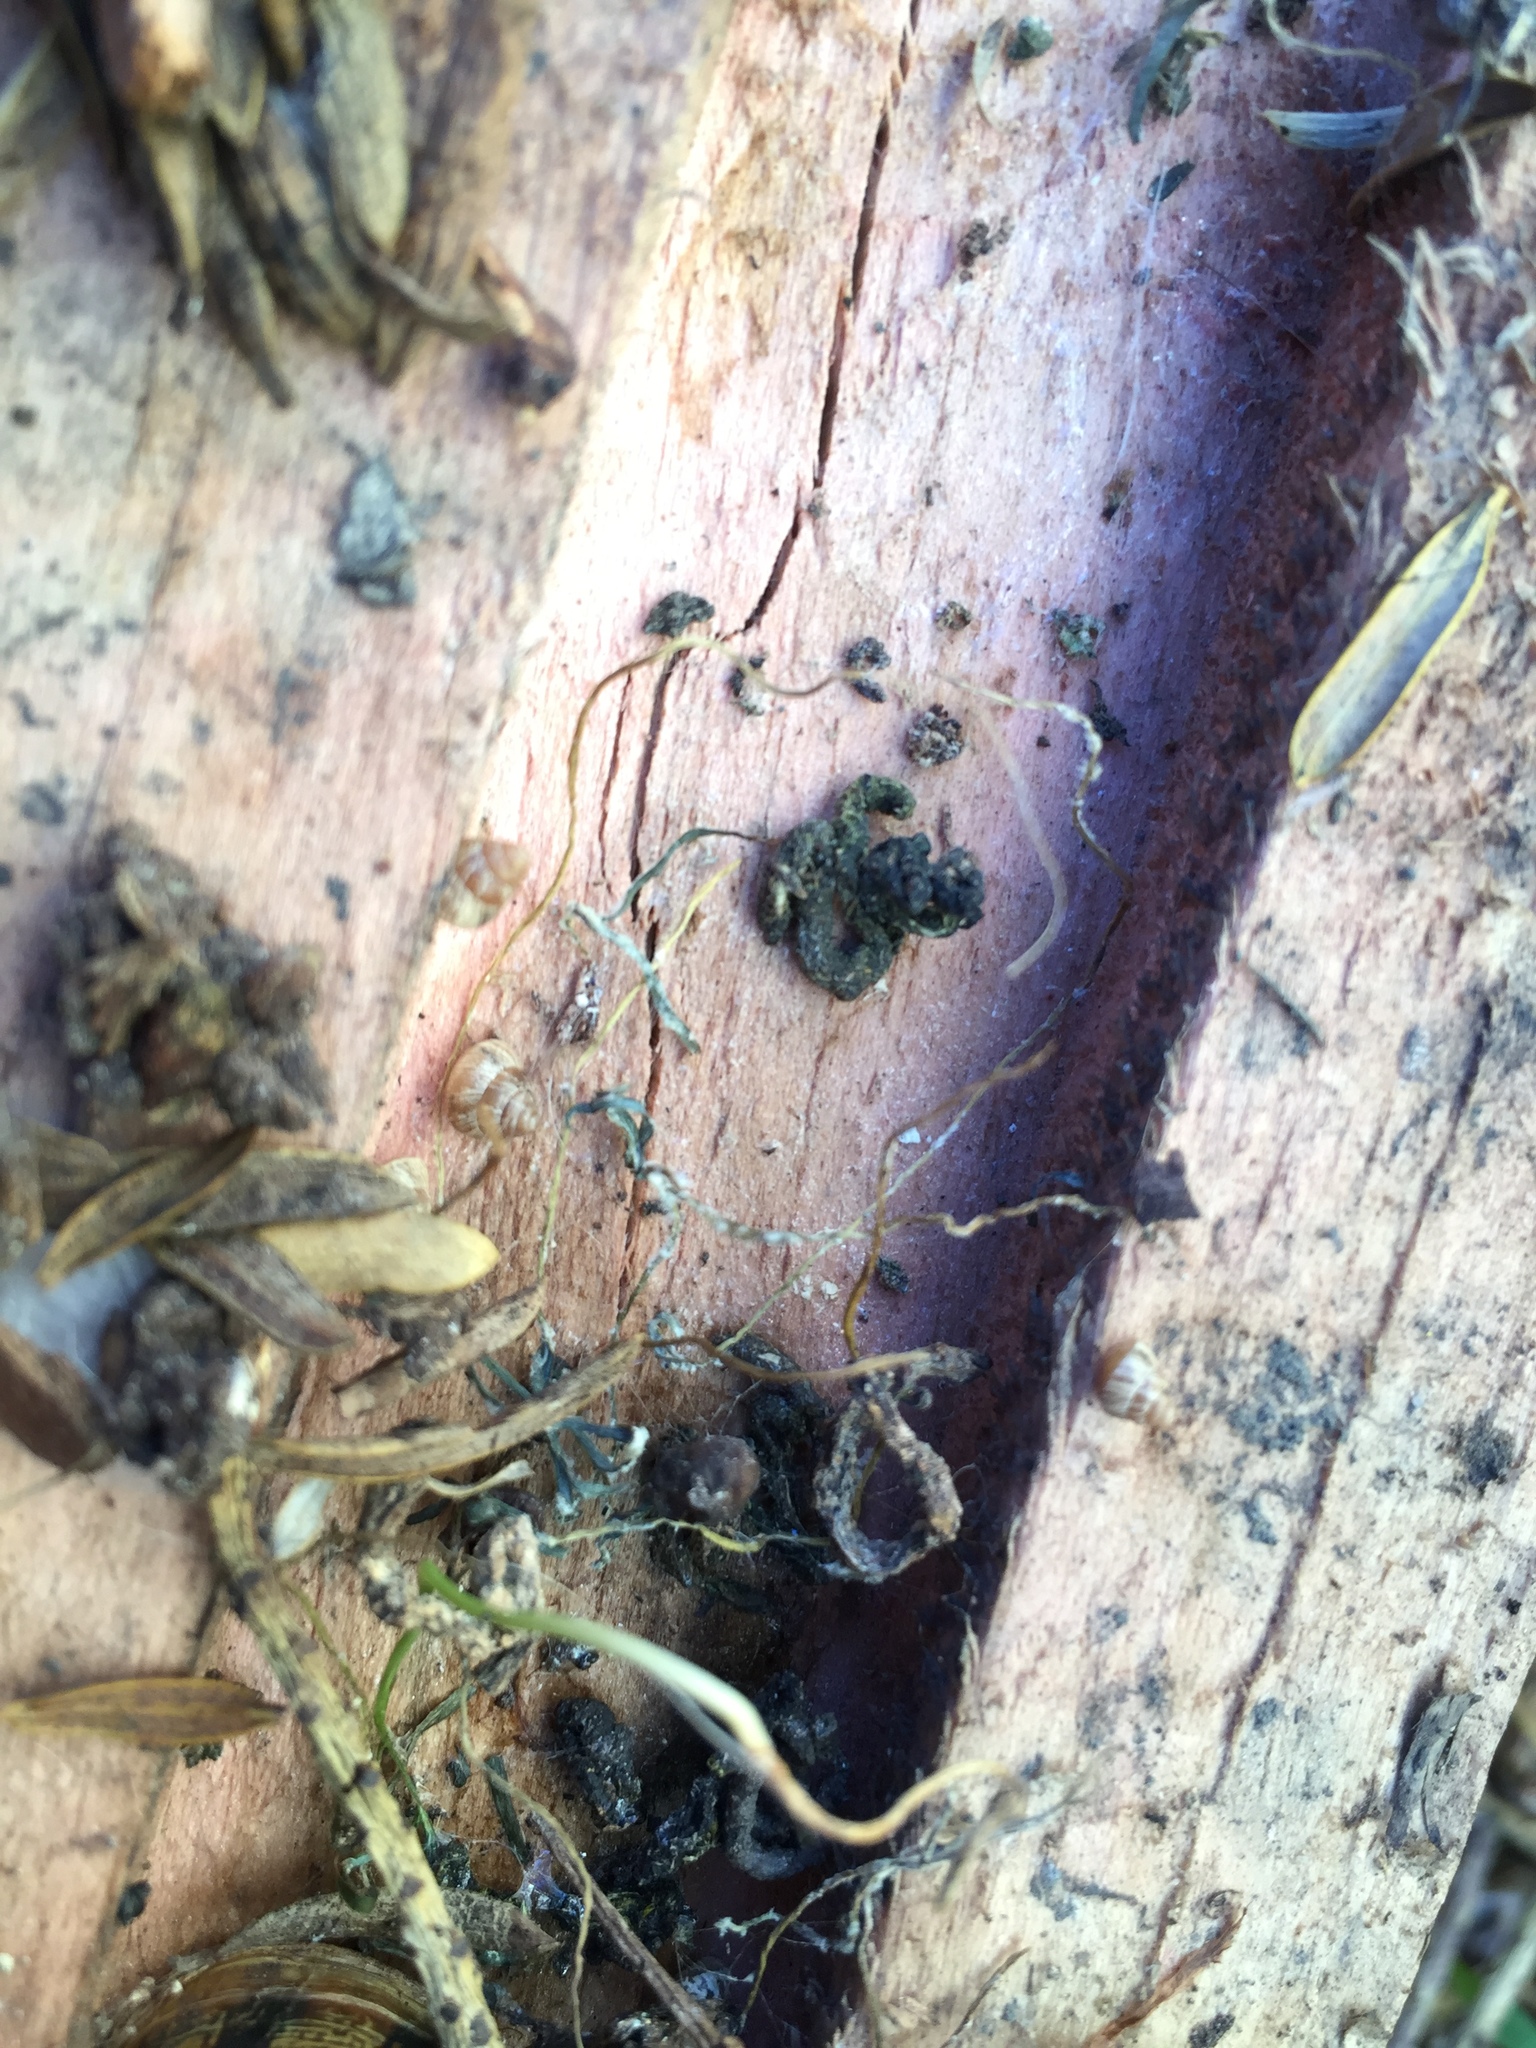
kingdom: Animalia
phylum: Mollusca
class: Gastropoda
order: Stylommatophora
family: Geomitridae
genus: Cochlicella
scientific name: Cochlicella barbara
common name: Potbellied helicellid
